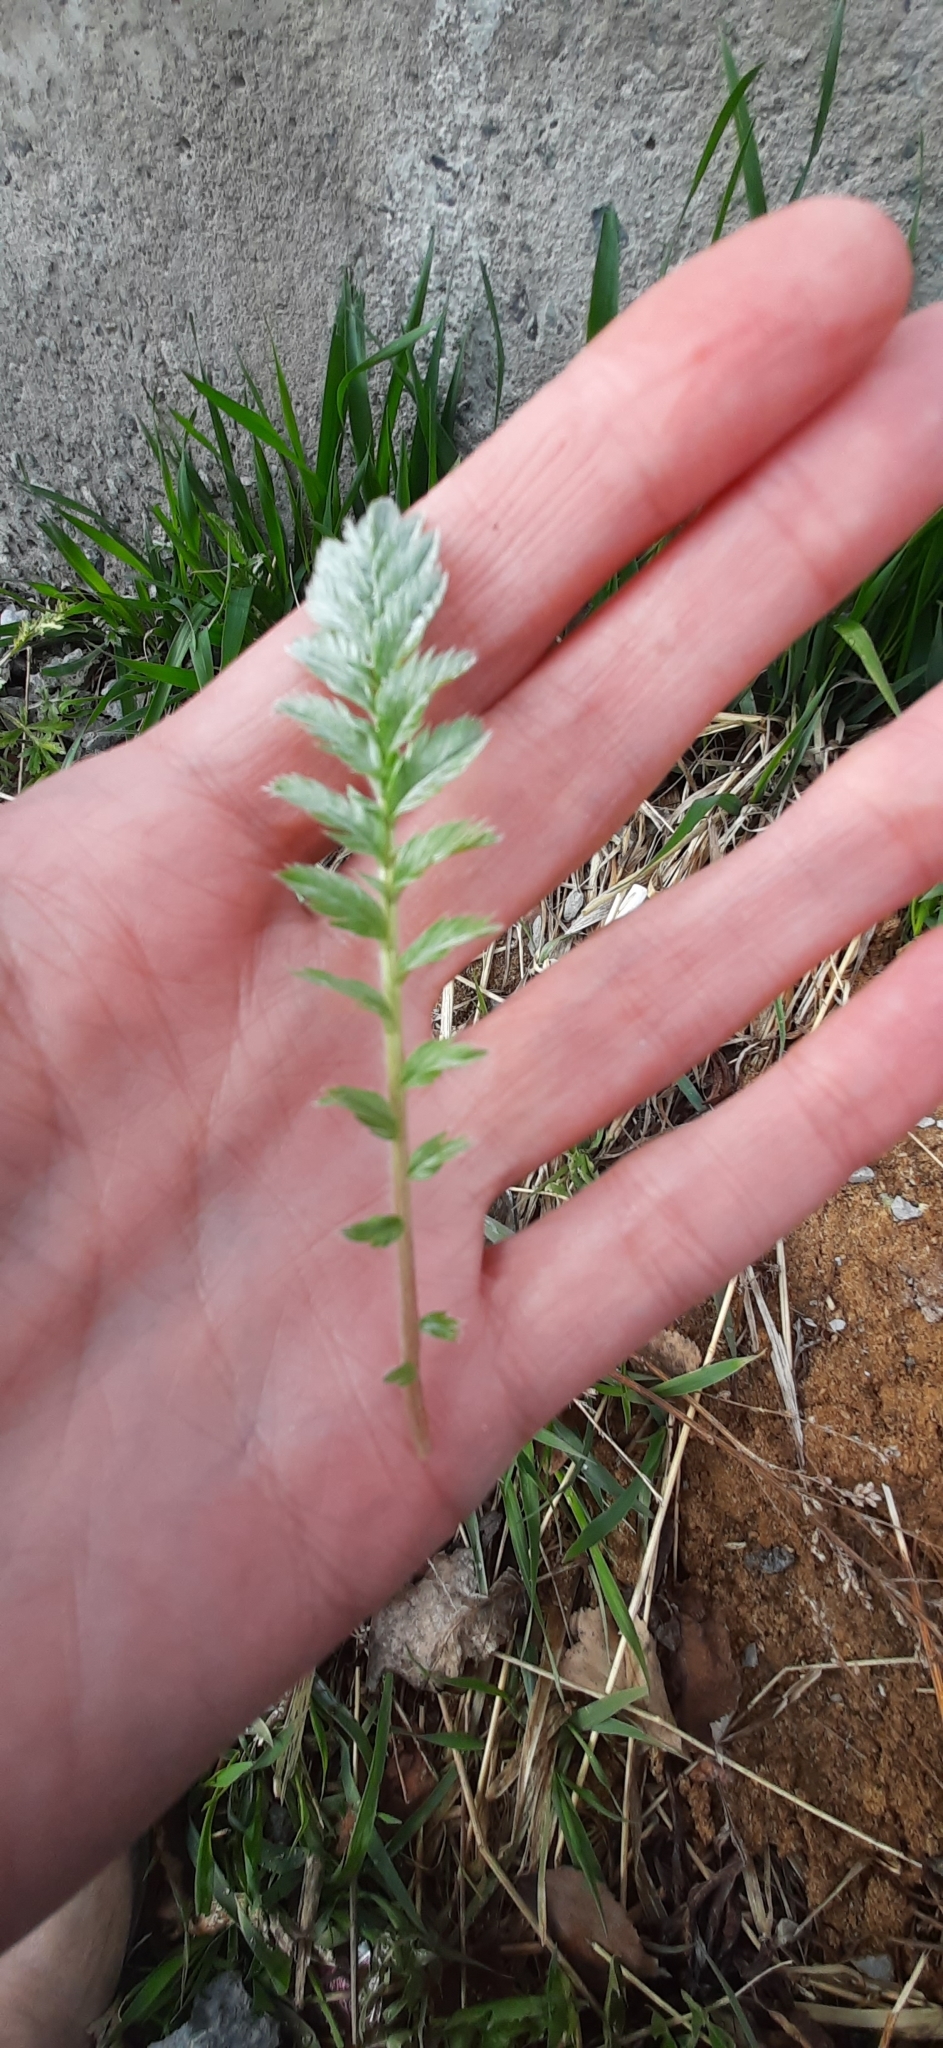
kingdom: Plantae
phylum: Tracheophyta
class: Magnoliopsida
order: Rosales
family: Rosaceae
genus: Argentina
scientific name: Argentina anserina
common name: Common silverweed
